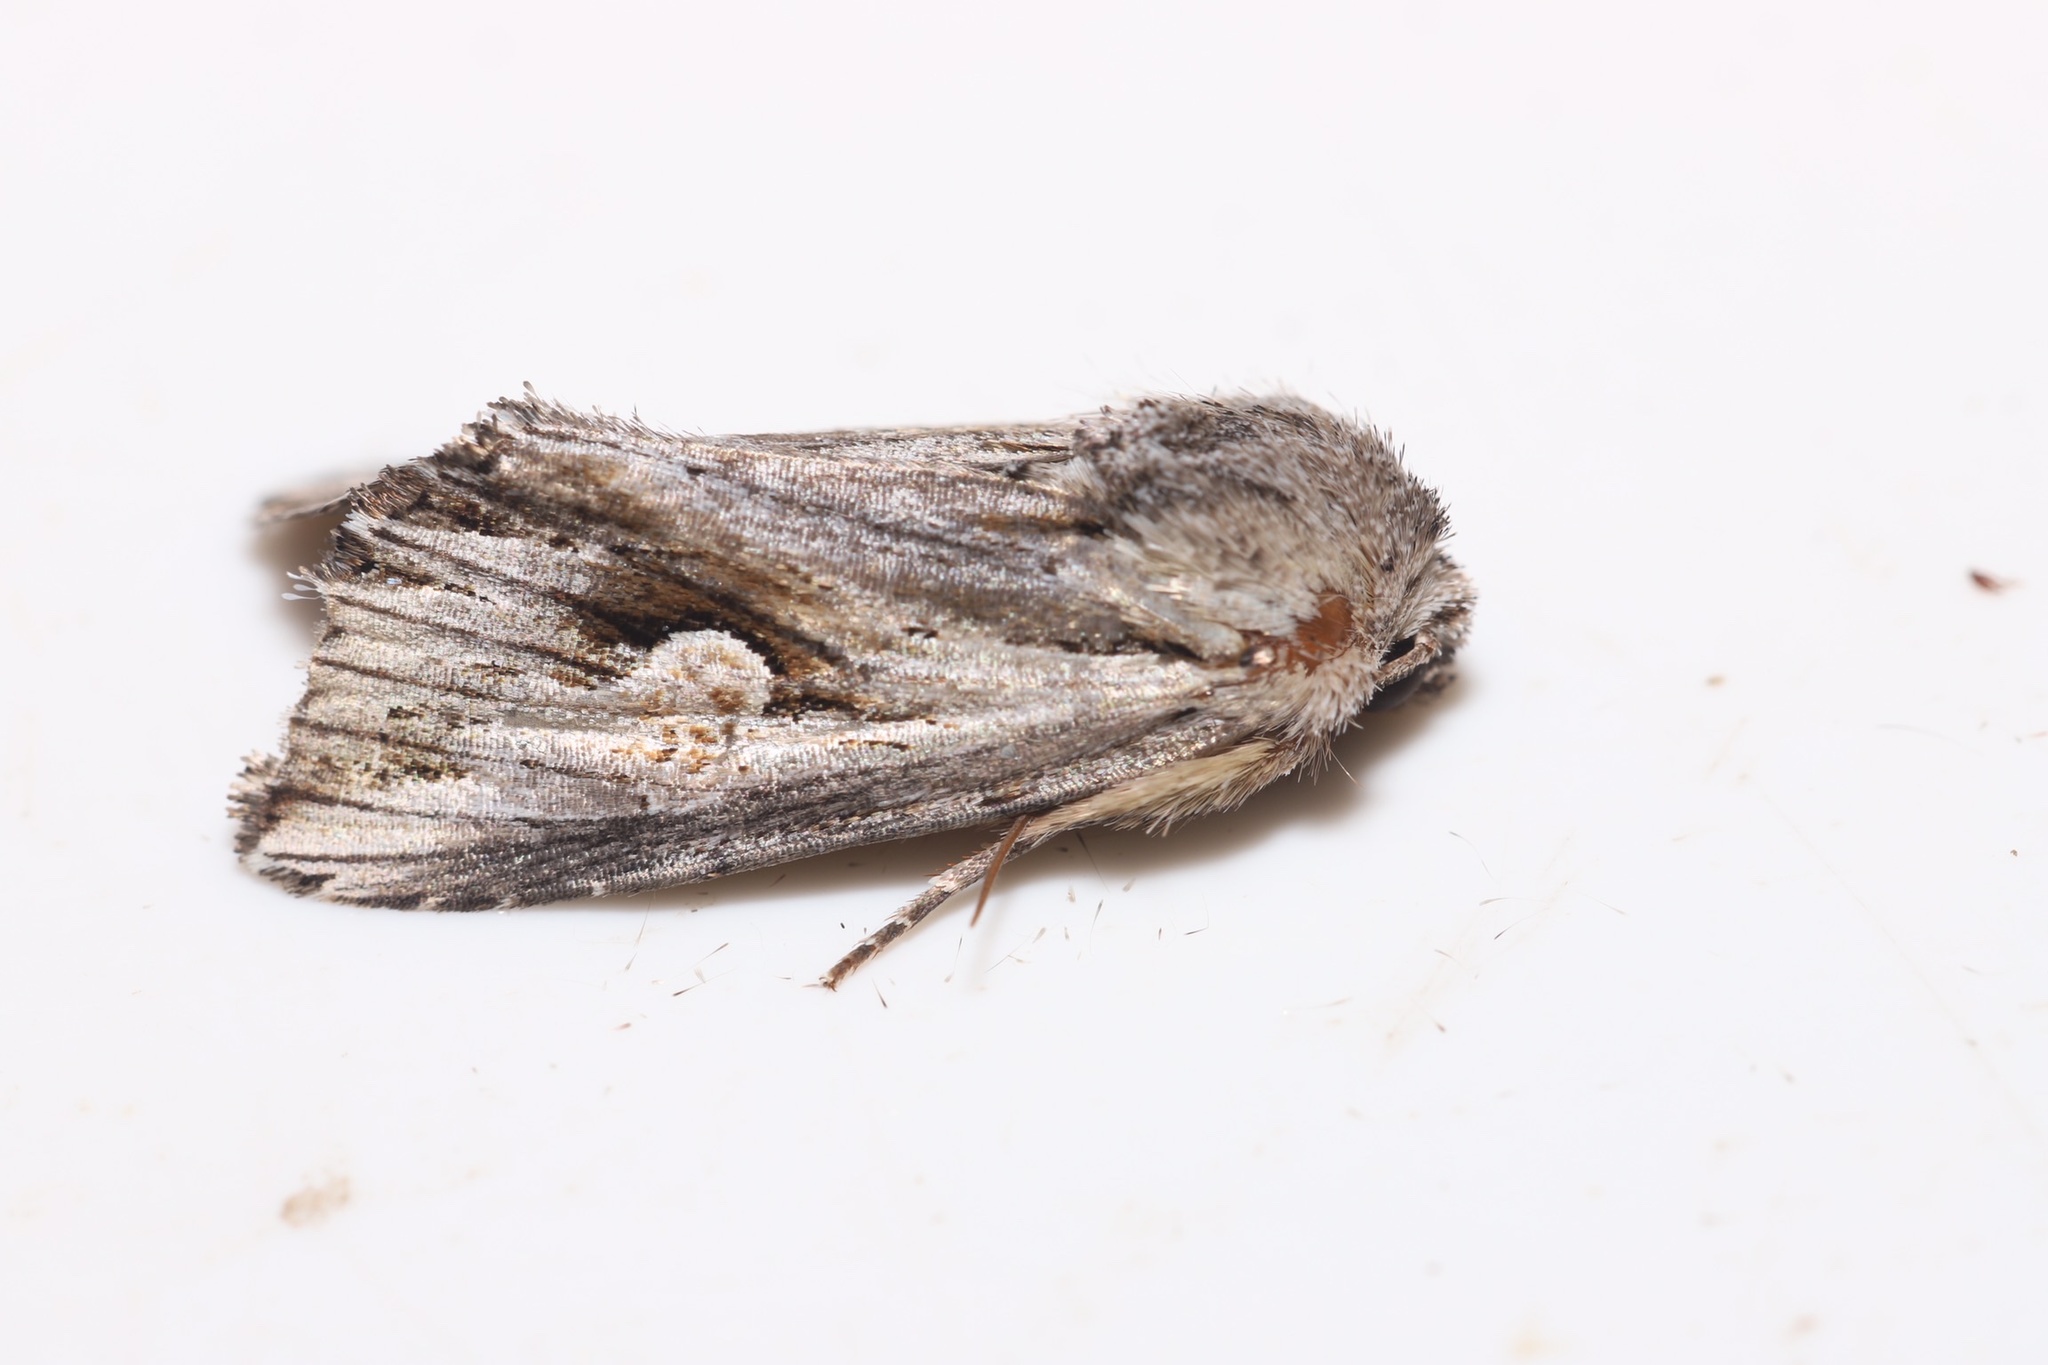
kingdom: Animalia
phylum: Arthropoda
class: Insecta
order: Lepidoptera
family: Noctuidae
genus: Nedra
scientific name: Nedra ramosula
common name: Gray half-spot
